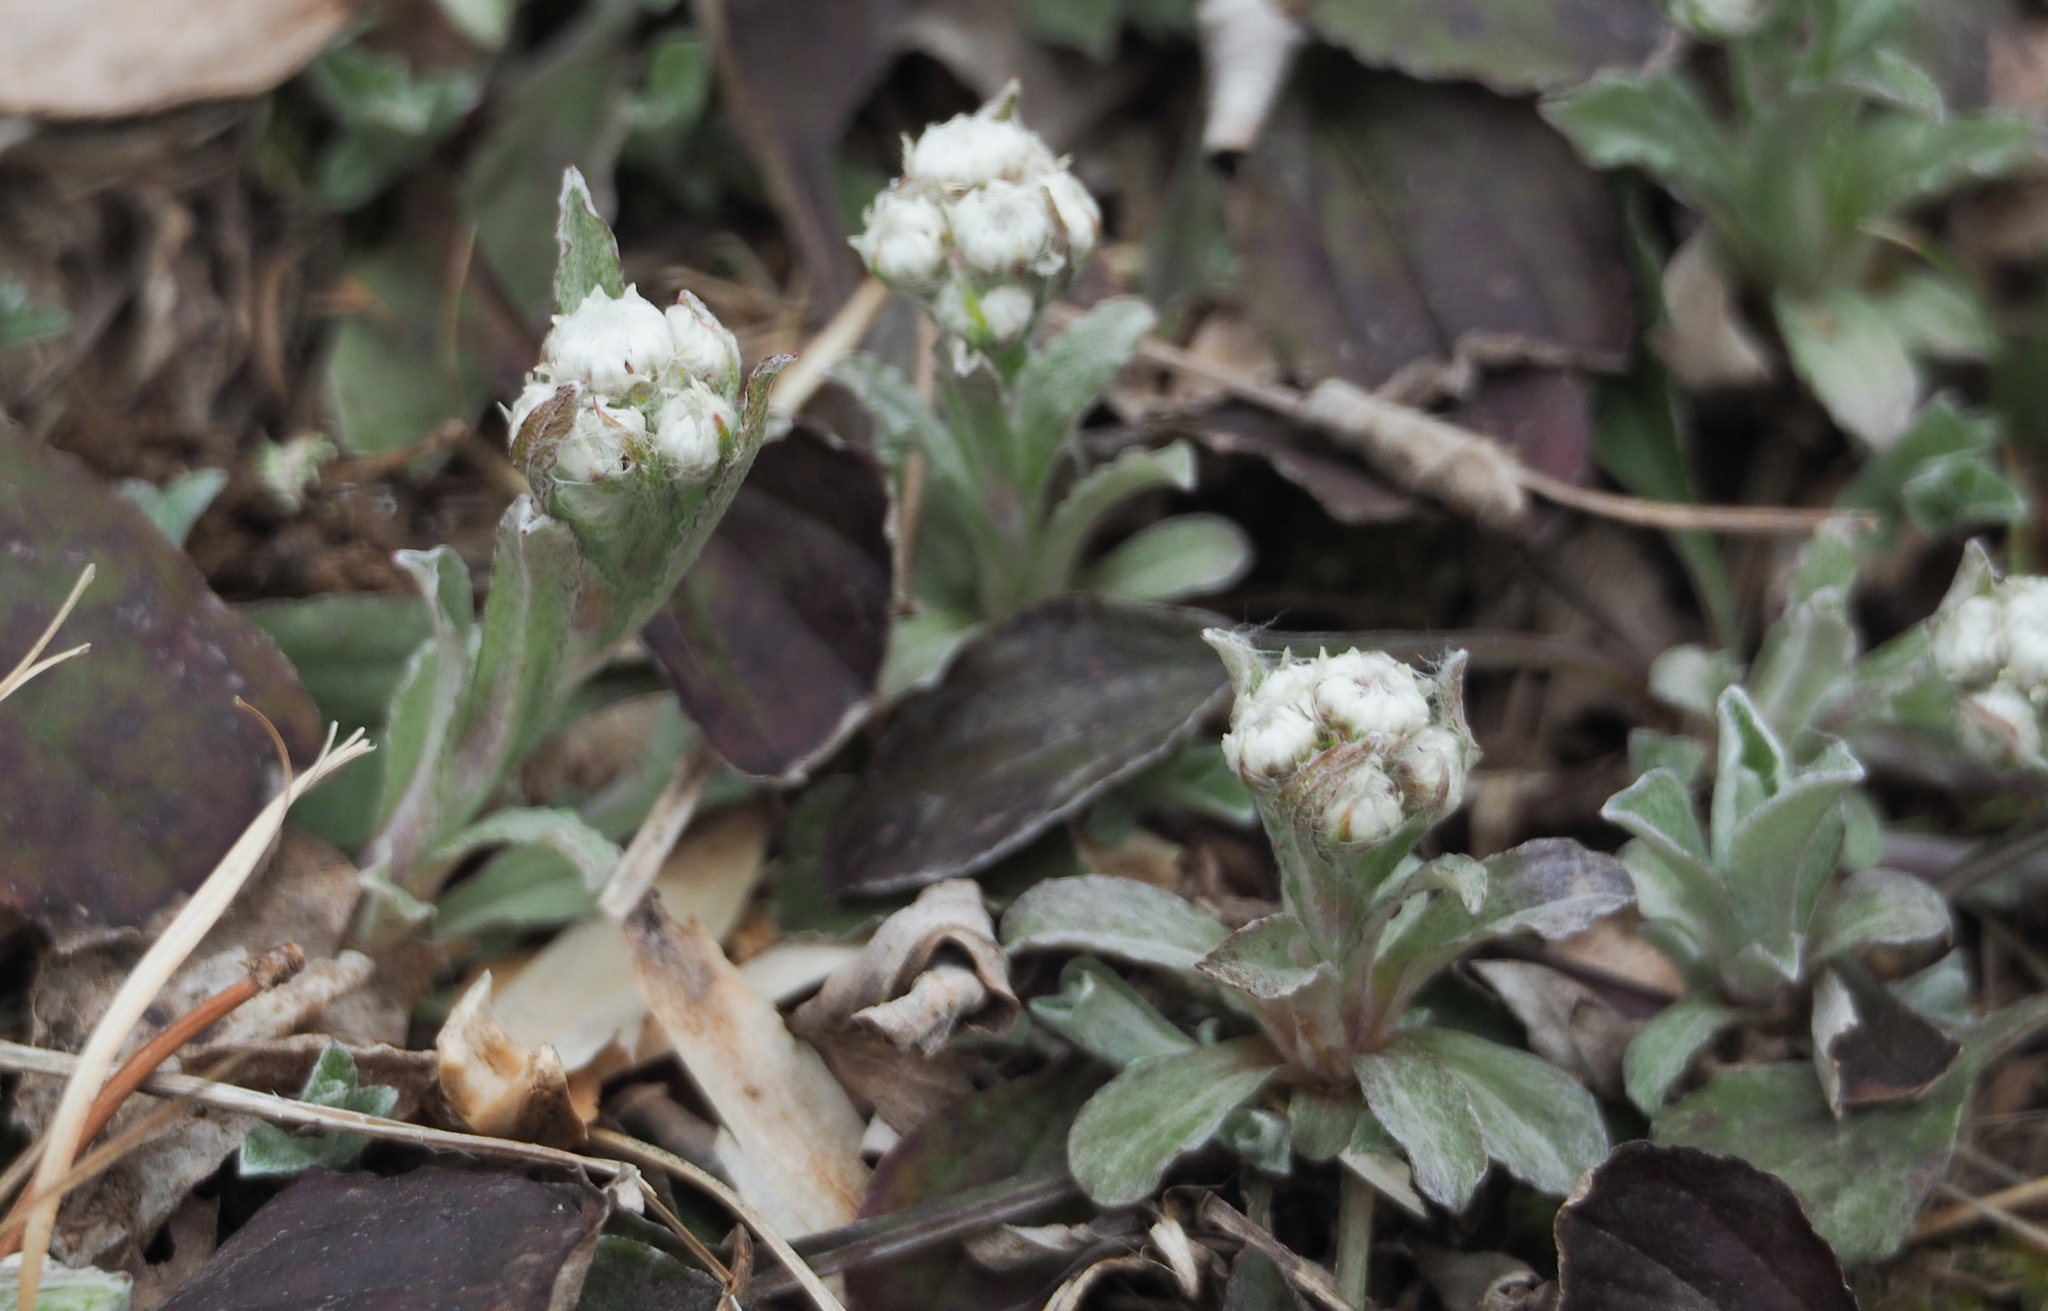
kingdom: Plantae
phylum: Tracheophyta
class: Magnoliopsida
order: Asterales
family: Asteraceae
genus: Antennaria
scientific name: Antennaria plantaginifolia
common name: Plantain-leaved pussytoes
